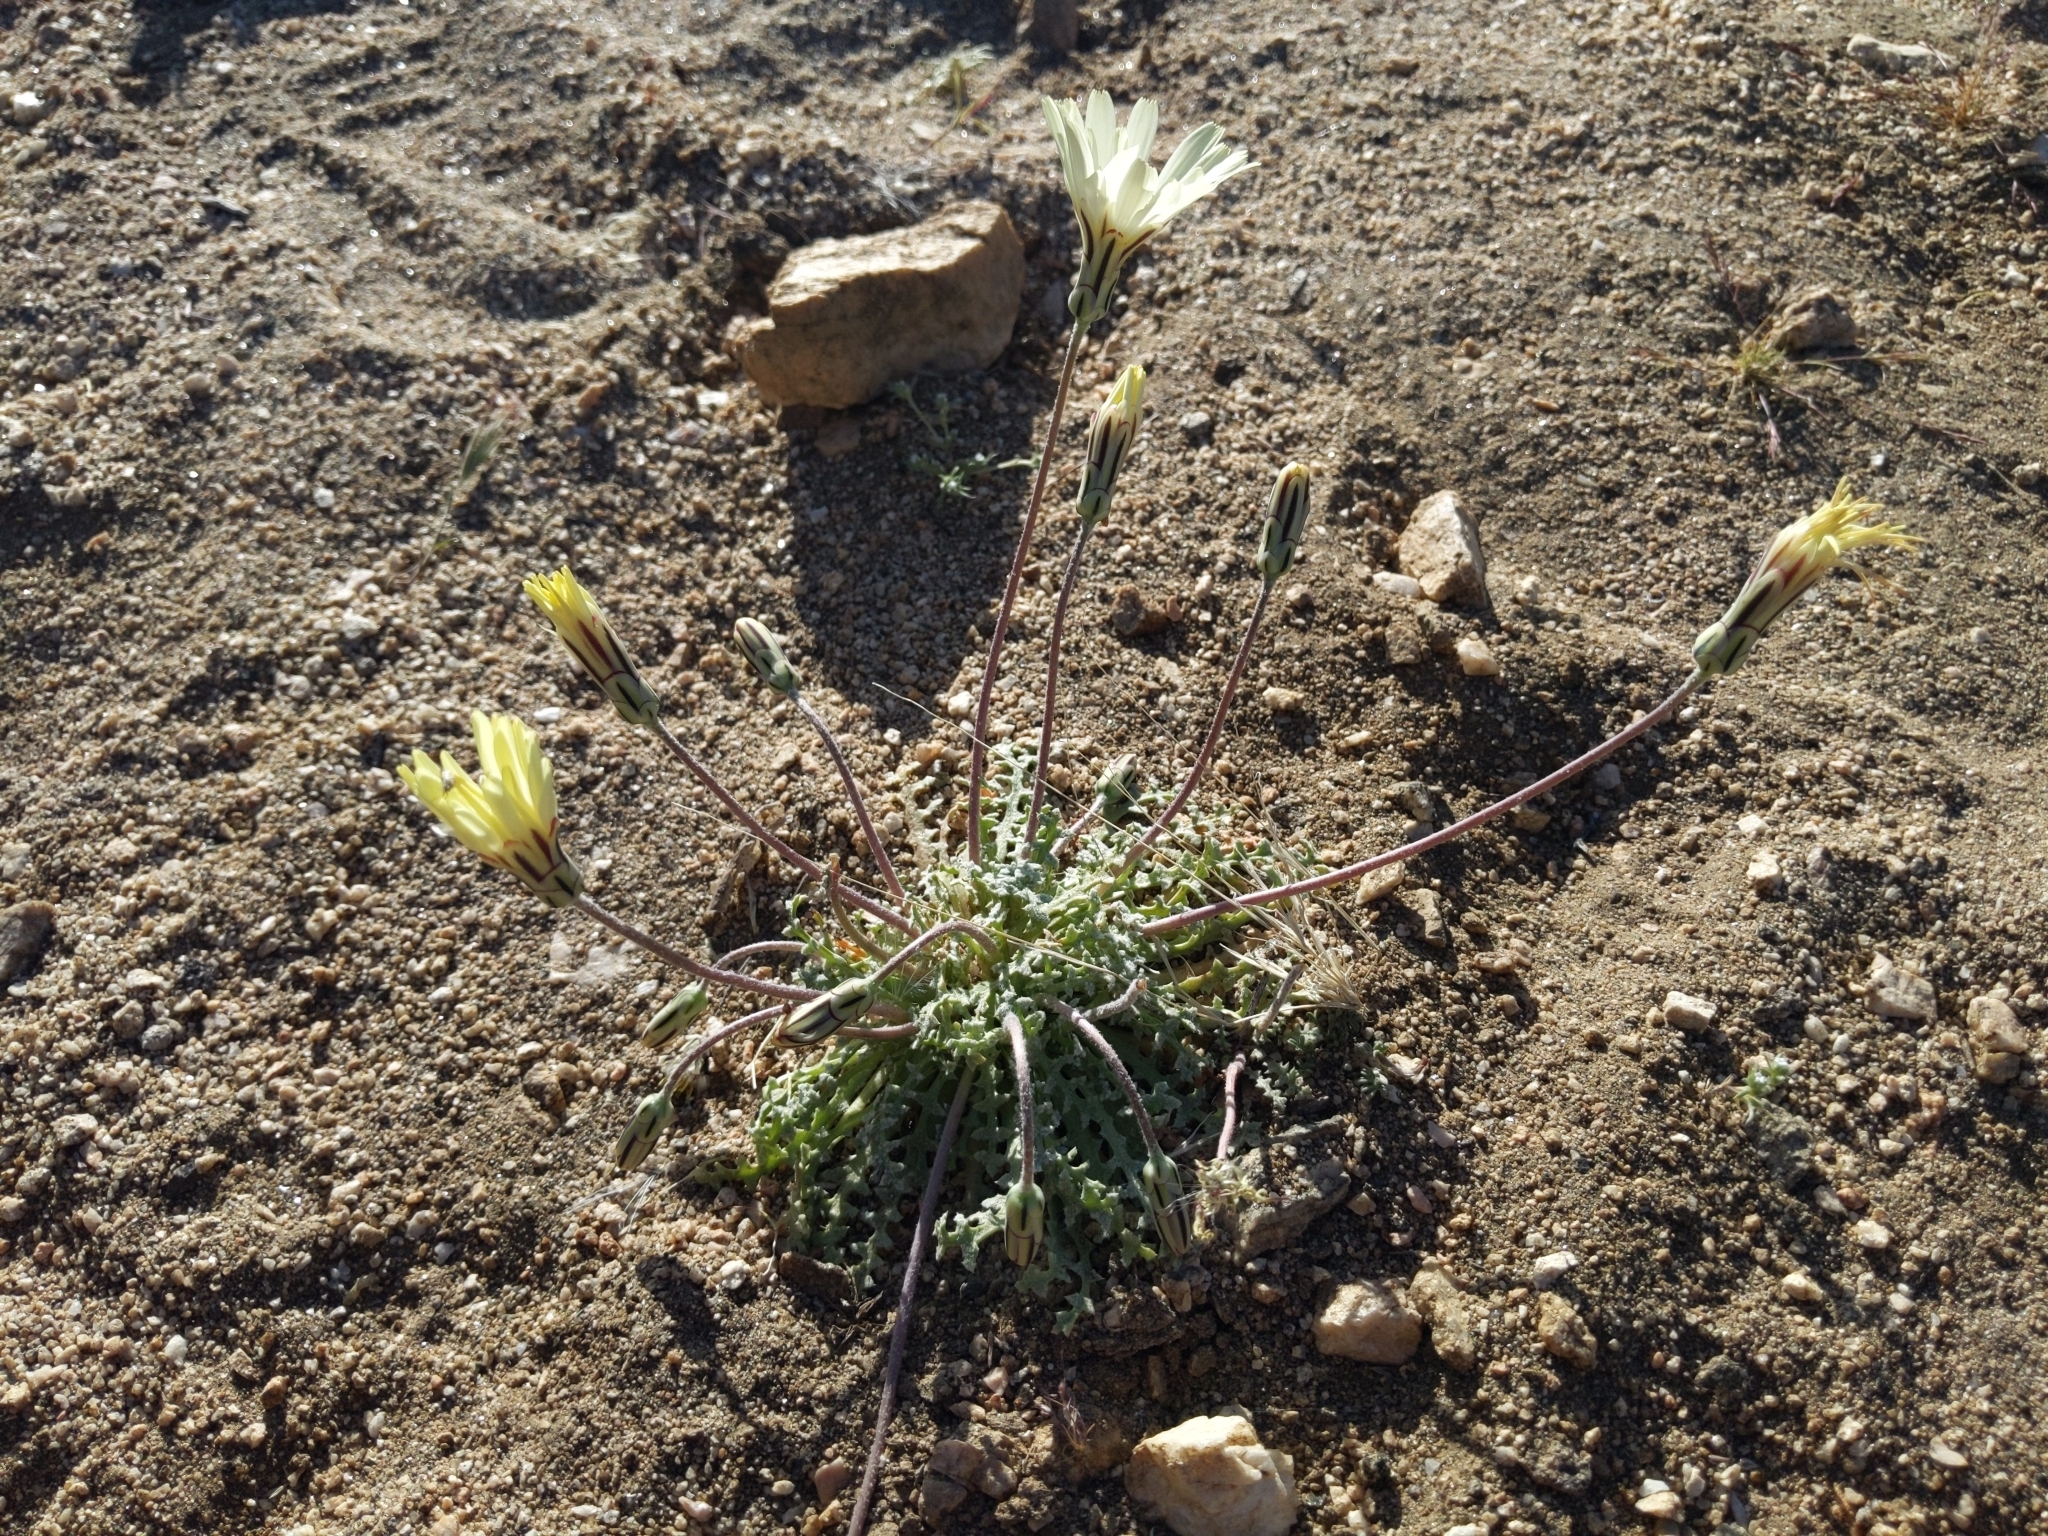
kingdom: Plantae
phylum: Tracheophyta
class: Magnoliopsida
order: Asterales
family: Asteraceae
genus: Anisocoma
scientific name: Anisocoma acaulis
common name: Scalebud
